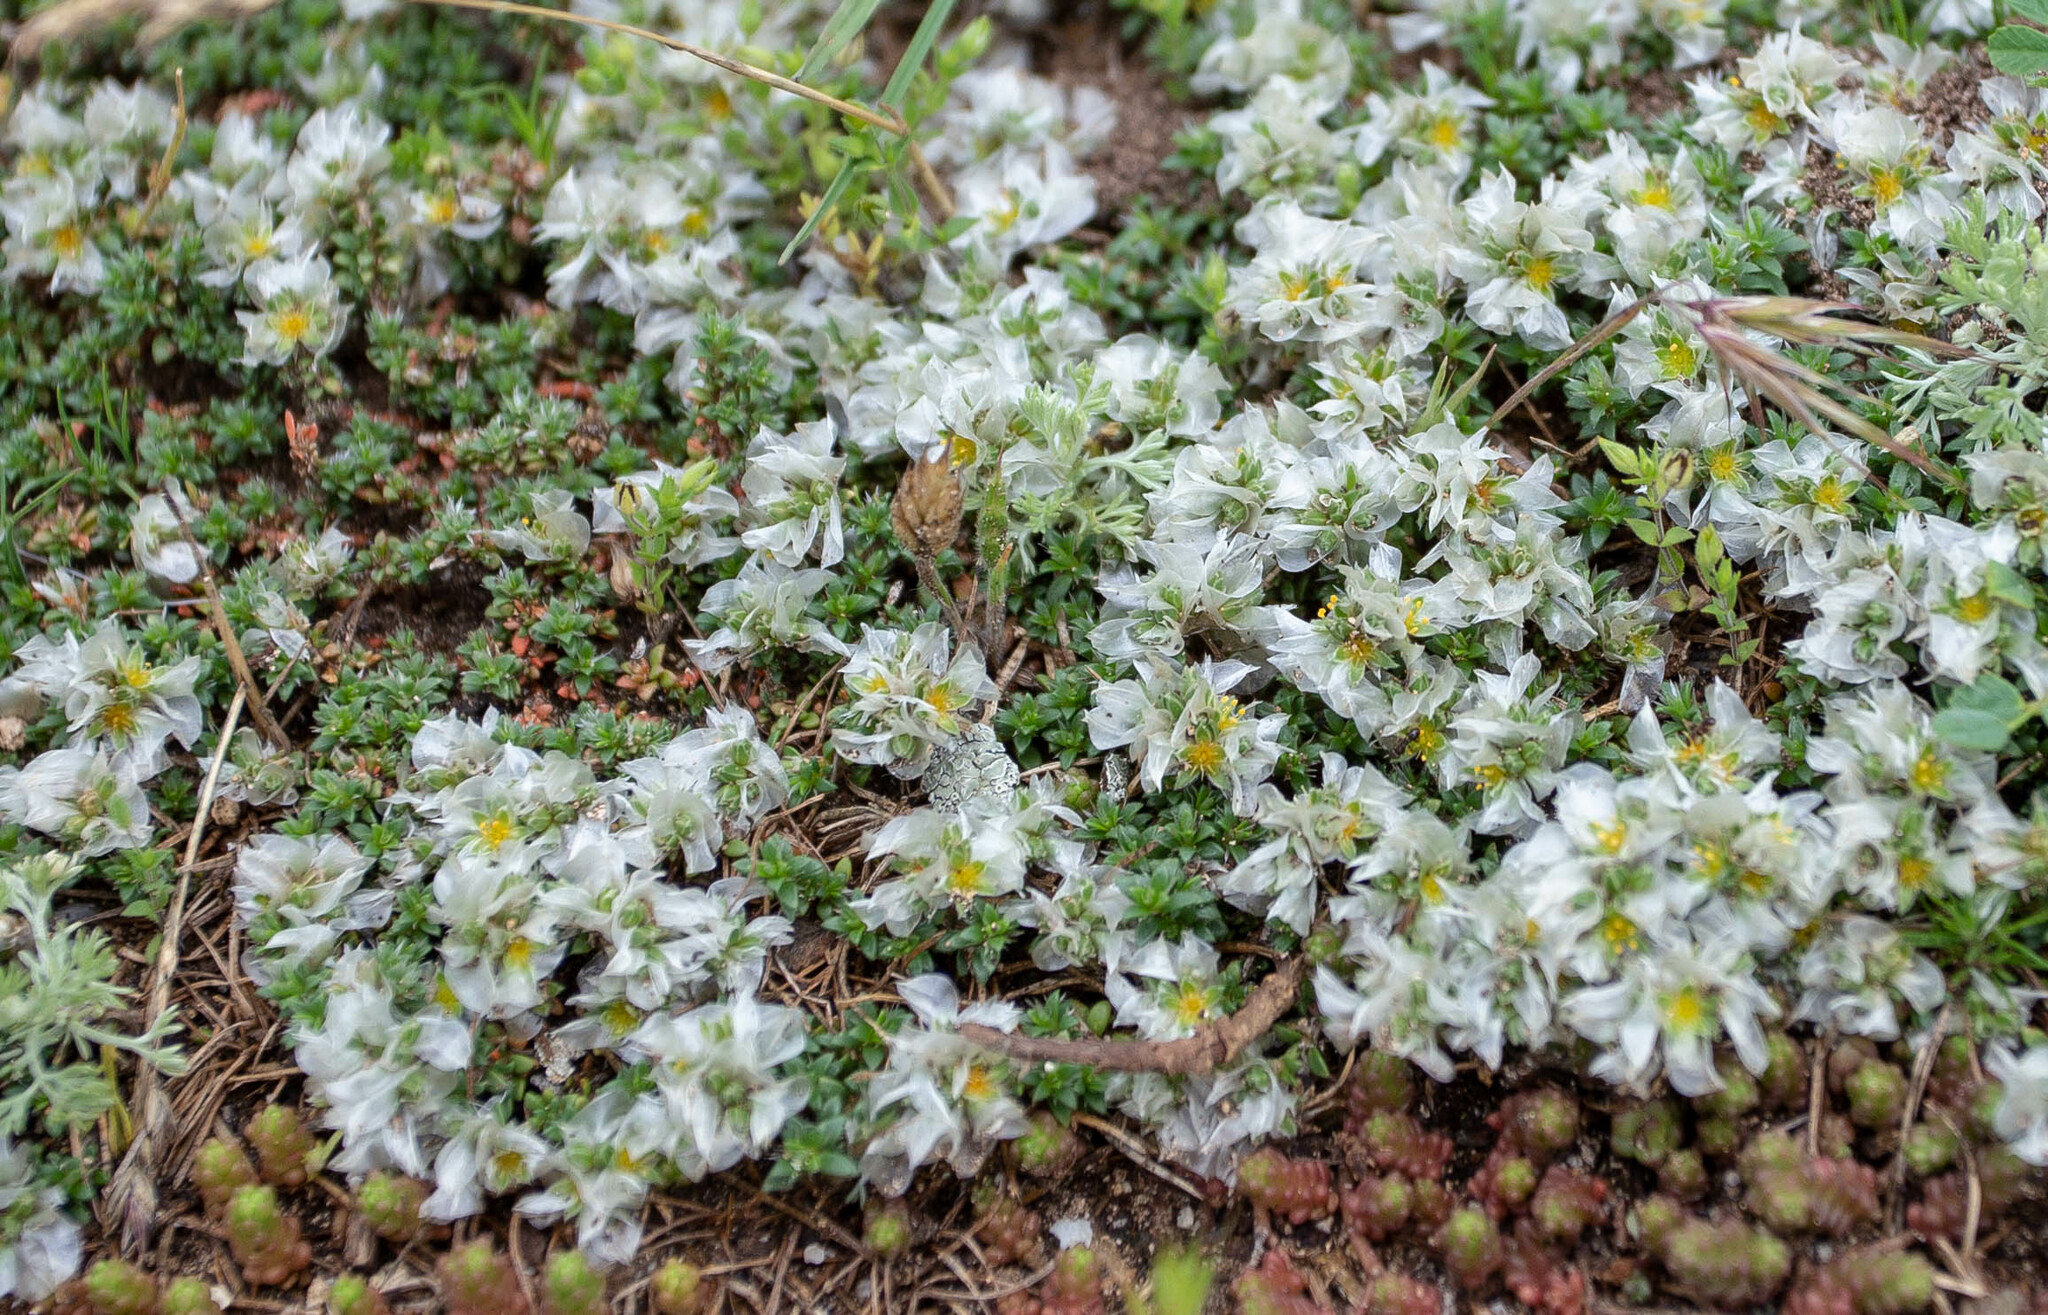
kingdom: Plantae
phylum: Tracheophyta
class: Magnoliopsida
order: Caryophyllales
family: Caryophyllaceae
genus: Paronychia
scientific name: Paronychia cephalotes
